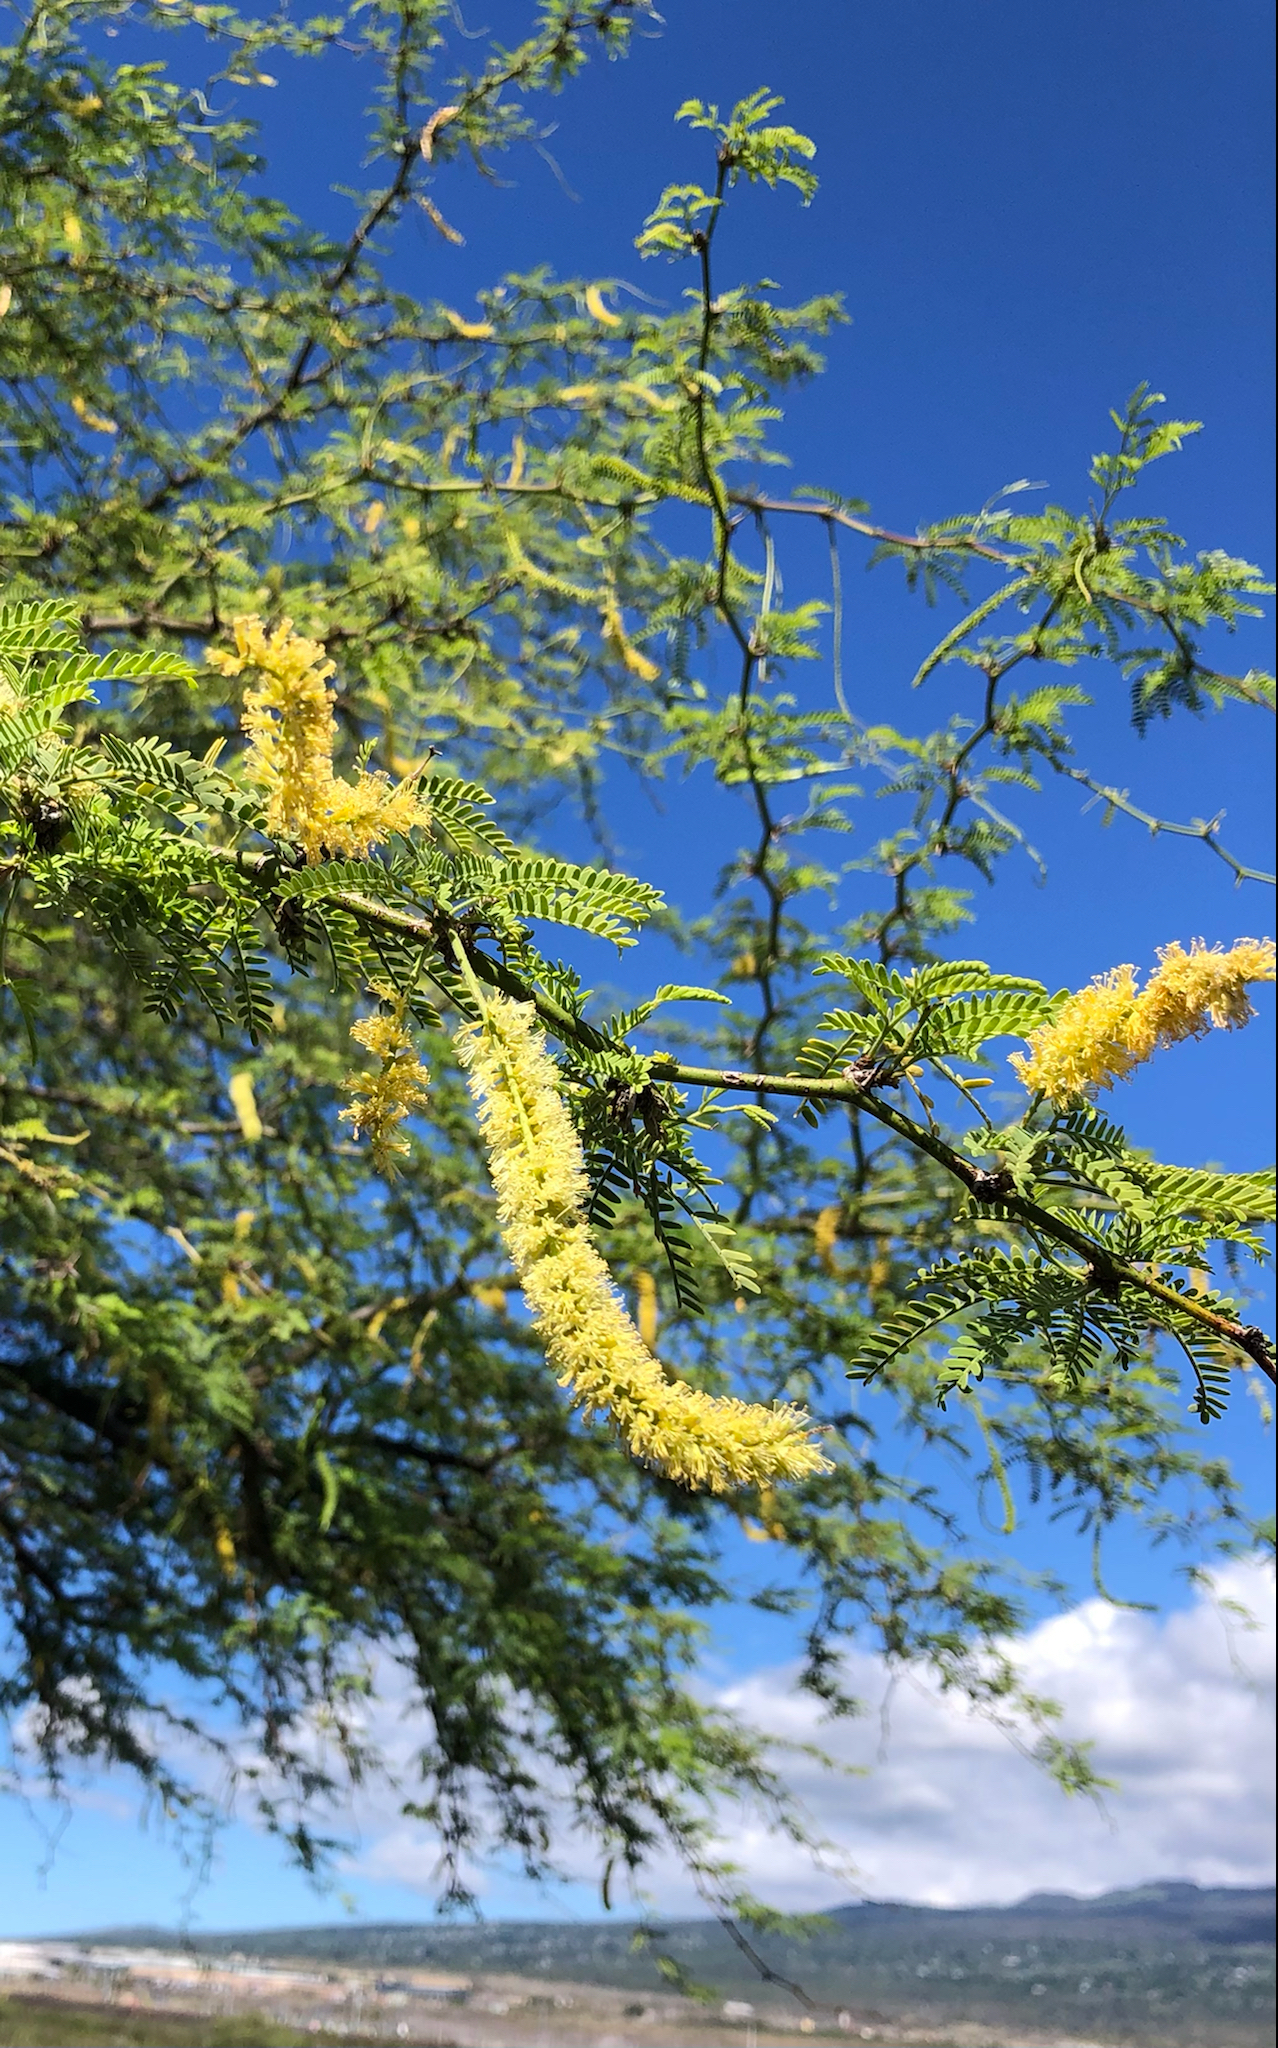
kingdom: Plantae
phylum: Tracheophyta
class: Magnoliopsida
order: Fabales
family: Fabaceae
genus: Prosopis
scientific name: Prosopis pallida
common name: Mesquite
